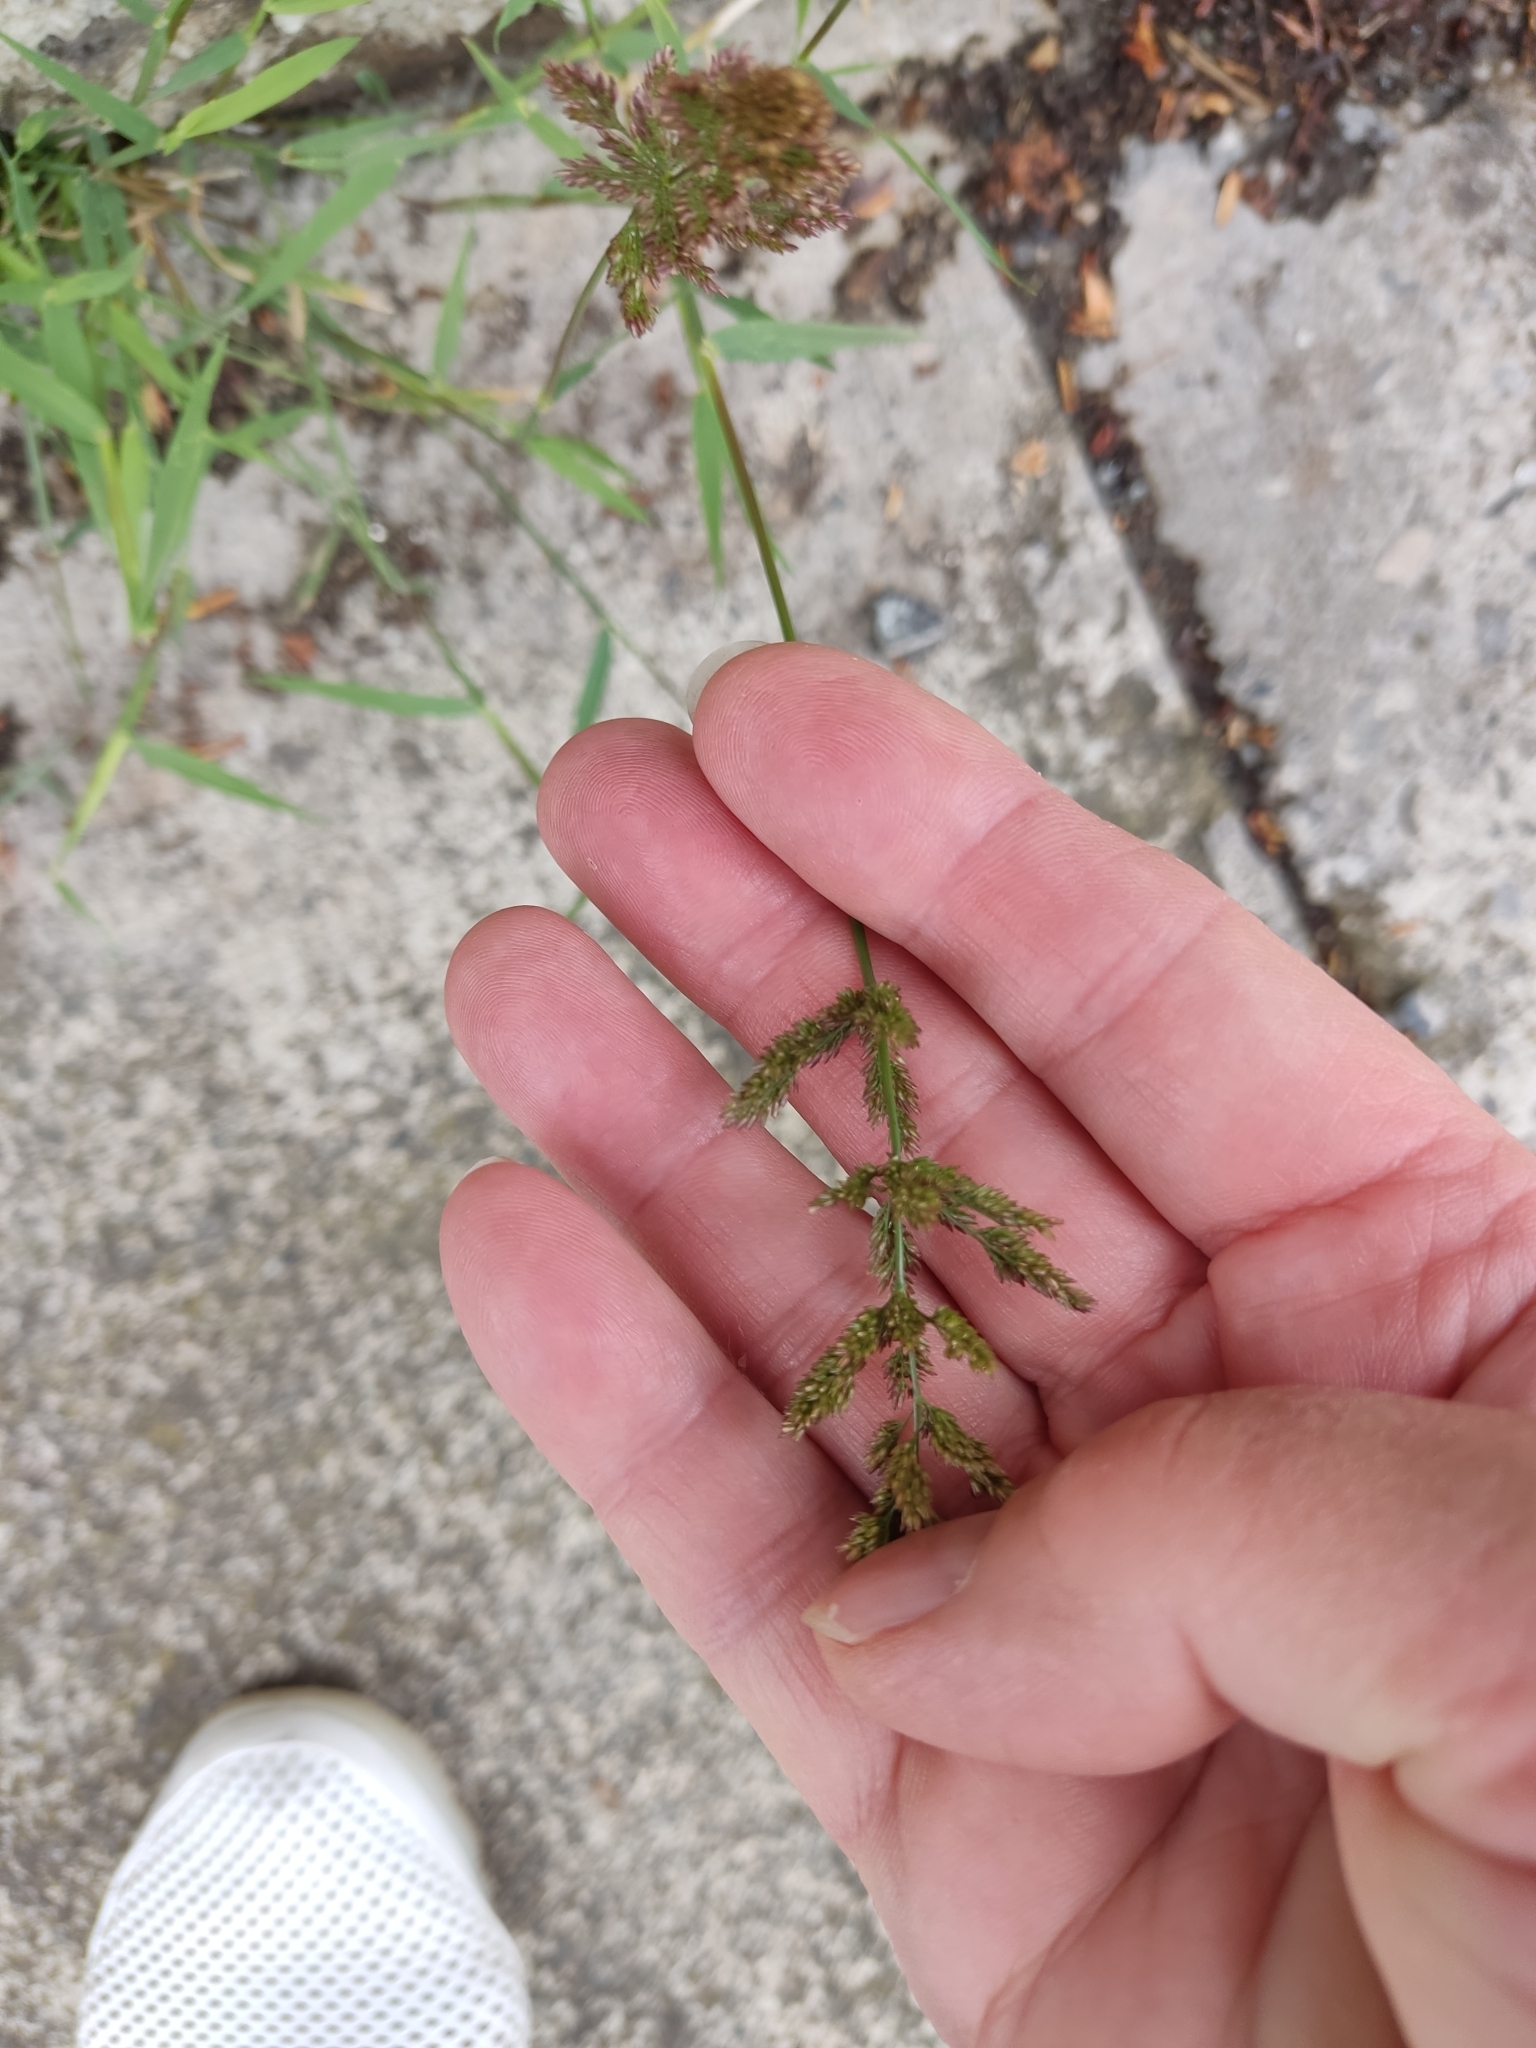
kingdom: Plantae
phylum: Tracheophyta
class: Liliopsida
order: Poales
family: Poaceae
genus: Polypogon
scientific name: Polypogon viridis
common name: Water bent
